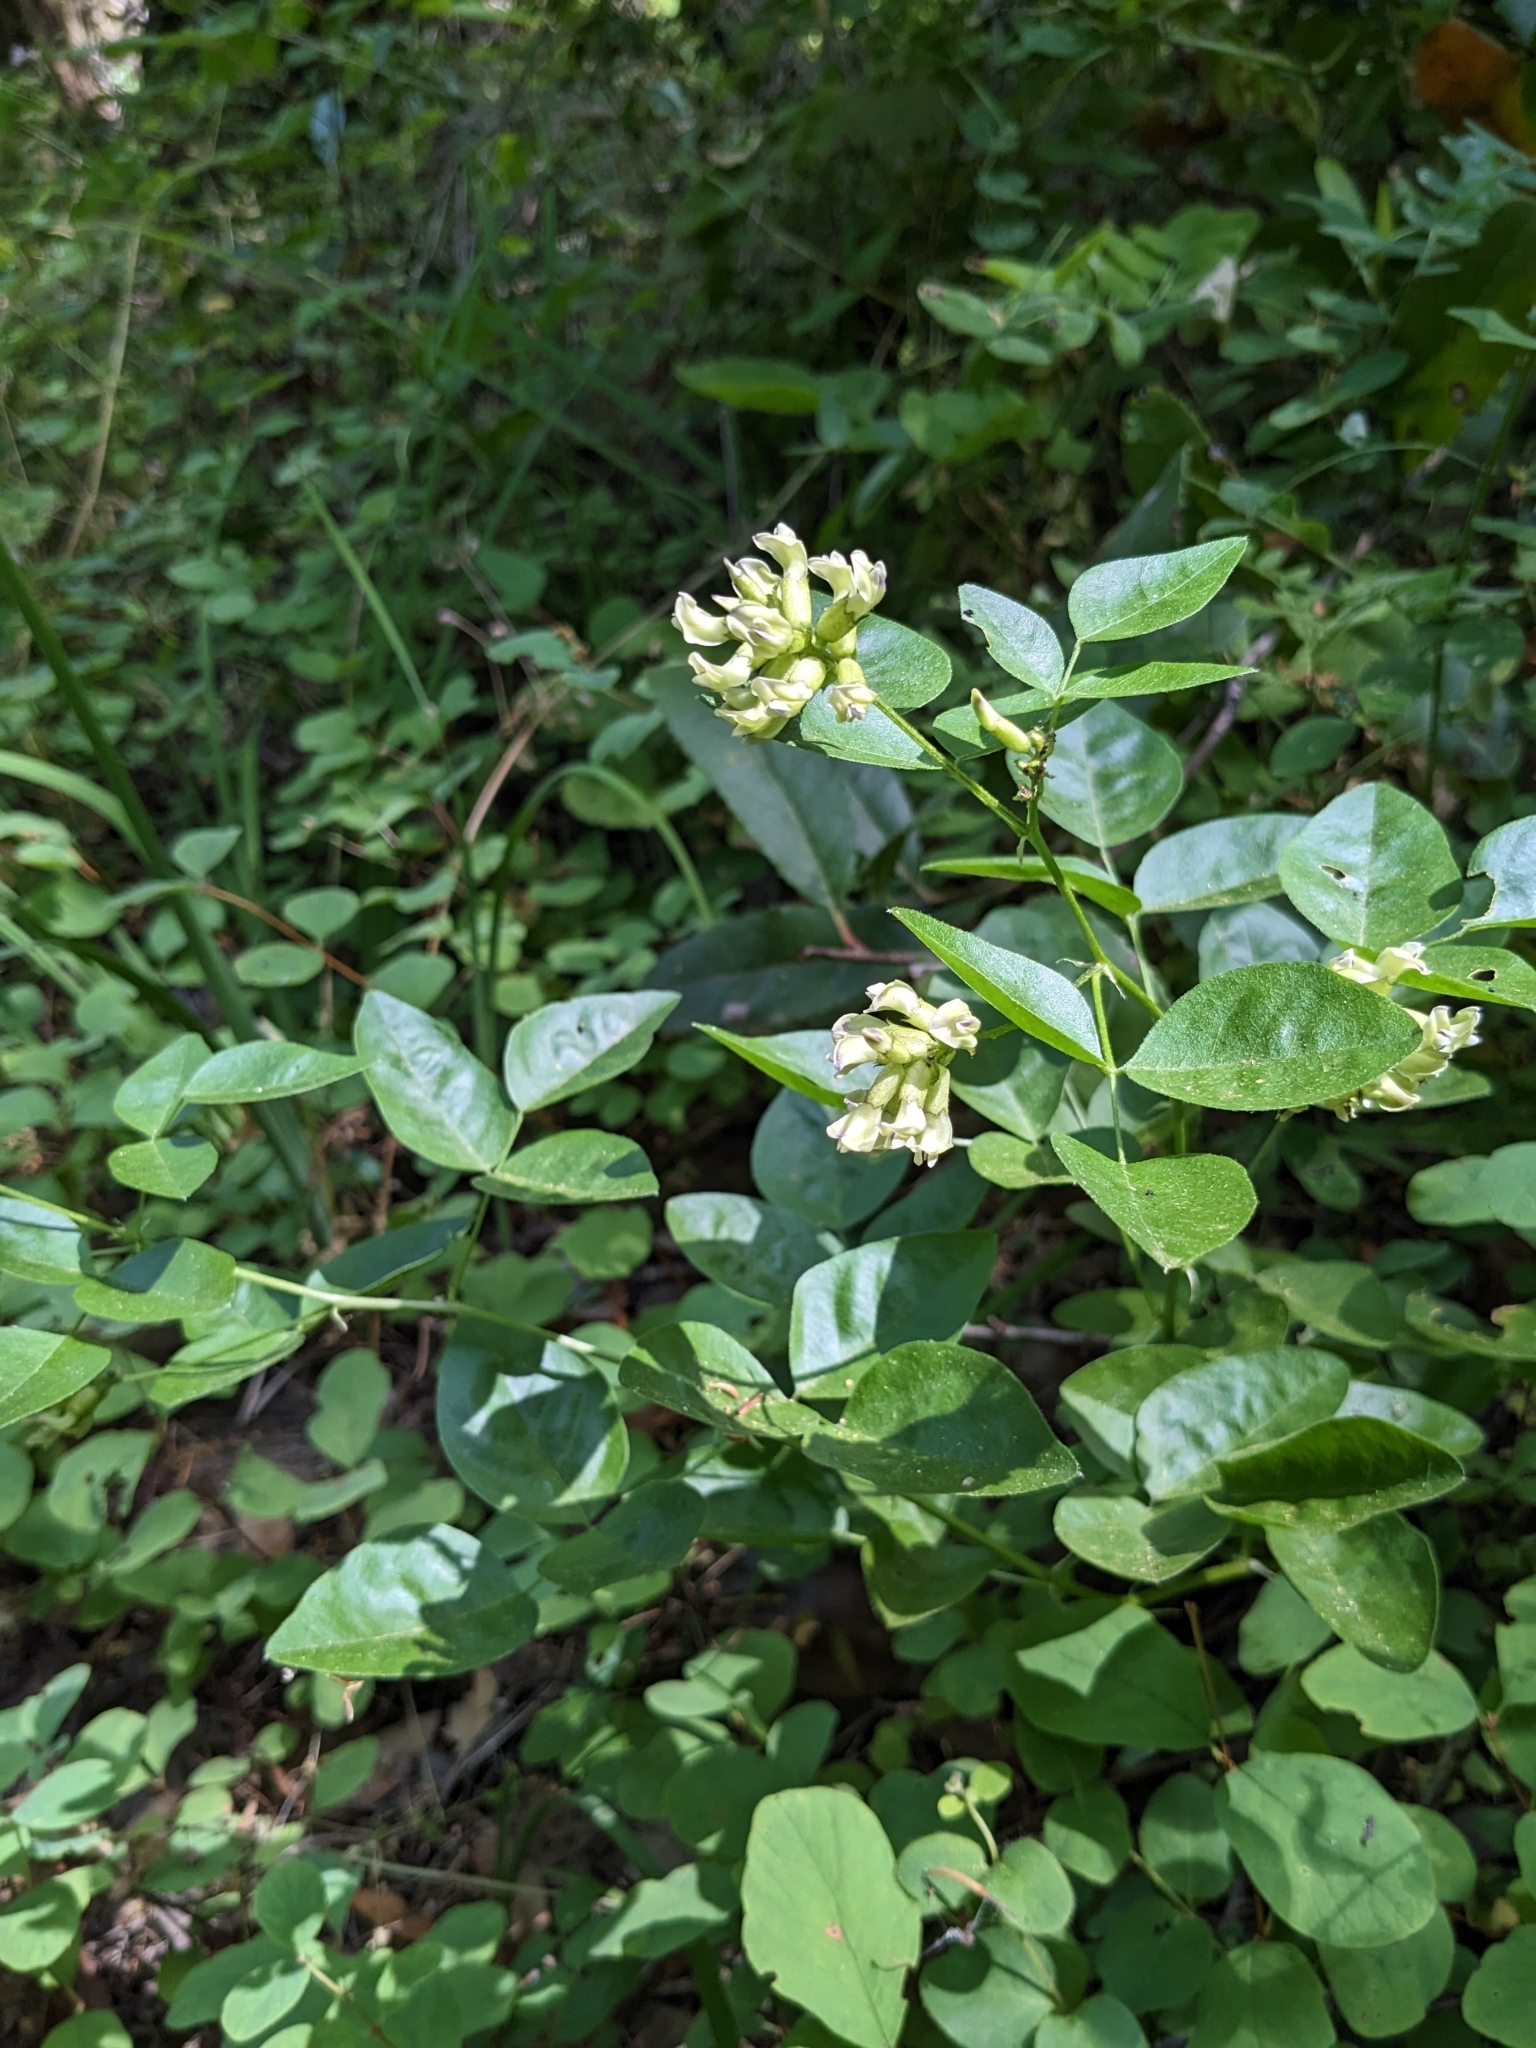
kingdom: Plantae
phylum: Tracheophyta
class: Magnoliopsida
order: Fabales
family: Fabaceae
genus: Rupertia
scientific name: Rupertia physodes
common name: California-tea
